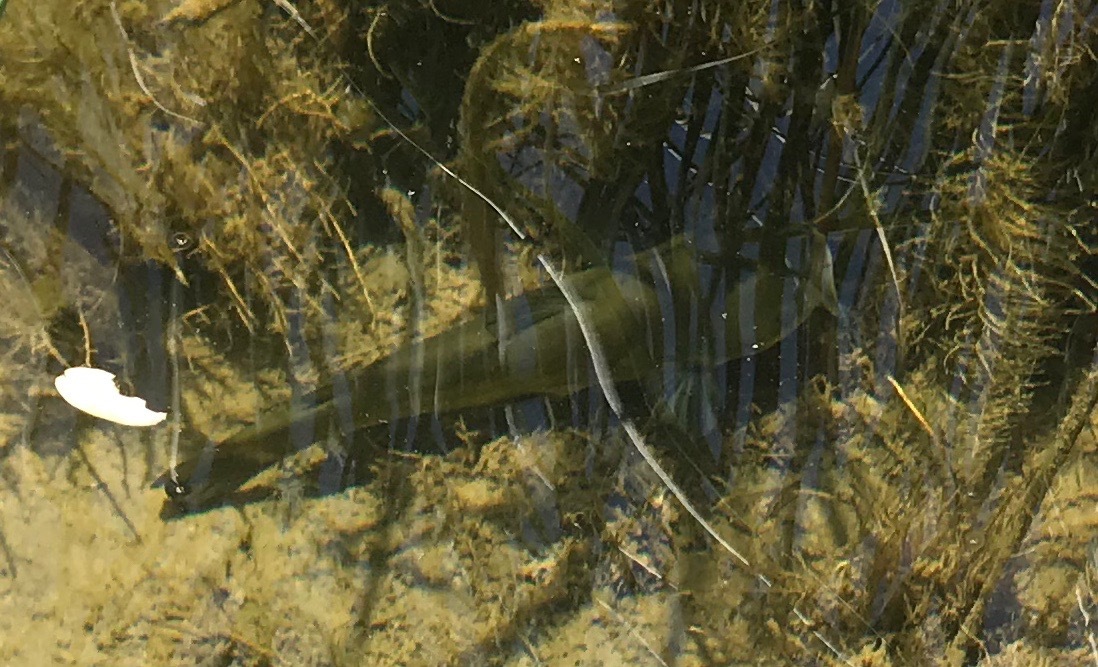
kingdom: Animalia
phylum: Chordata
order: Siluriformes
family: Ictaluridae
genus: Ameiurus
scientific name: Ameiurus melas
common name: Black bullhead
